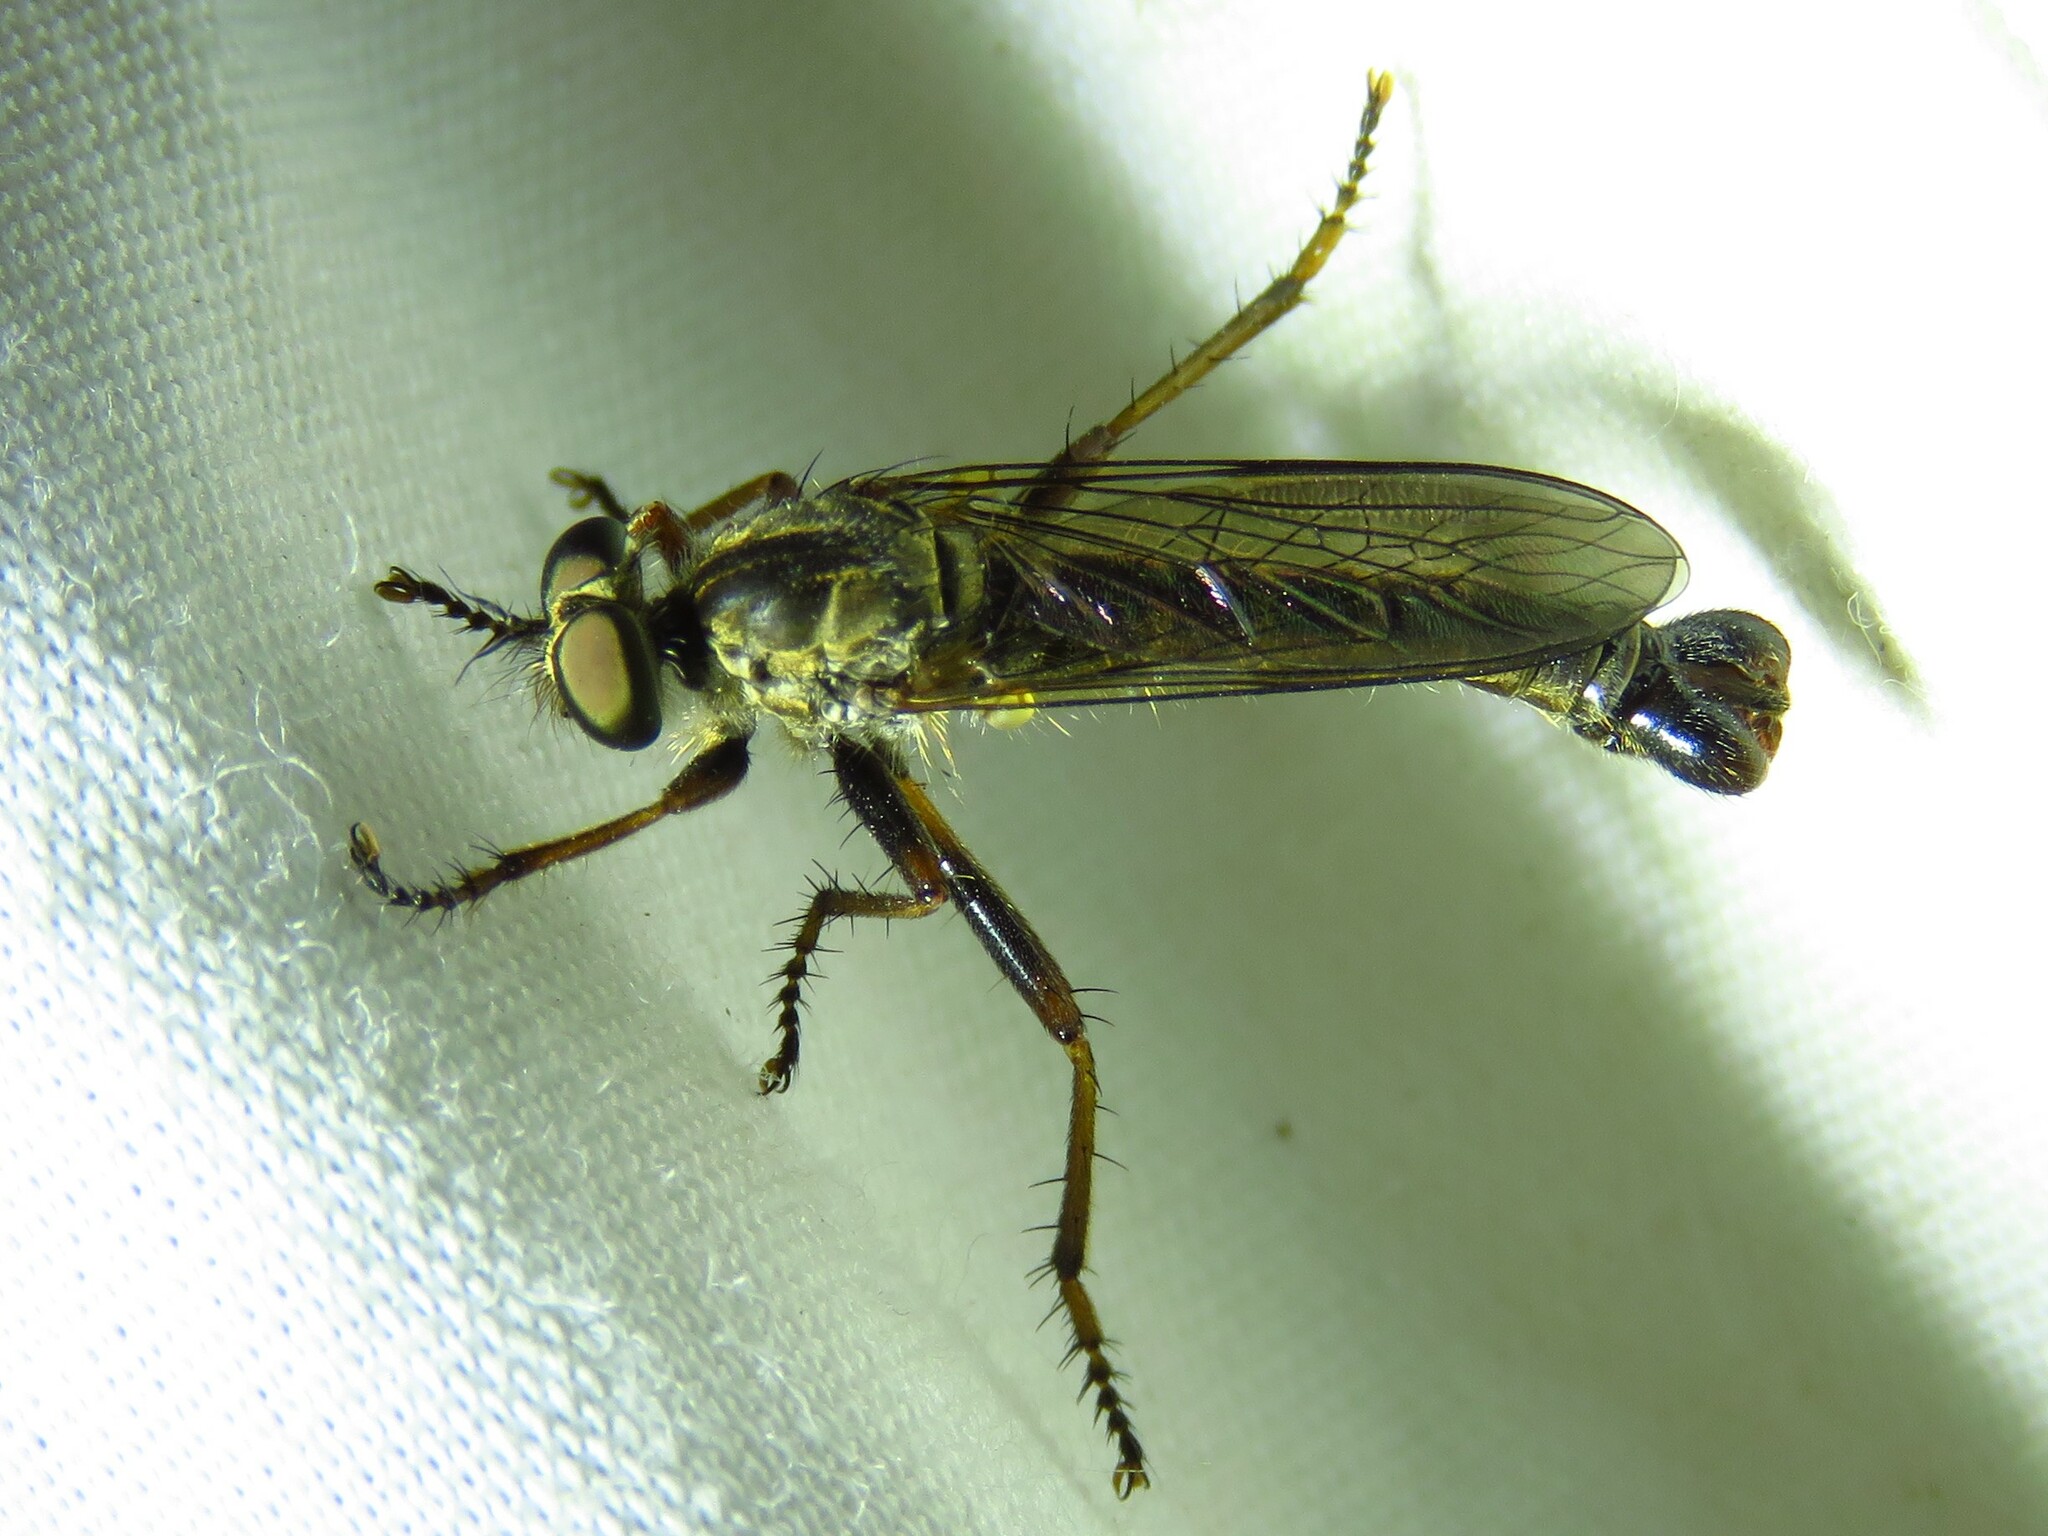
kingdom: Animalia
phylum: Arthropoda
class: Insecta
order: Diptera
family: Asilidae
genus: Neomochtherus
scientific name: Neomochtherus angustipennis
